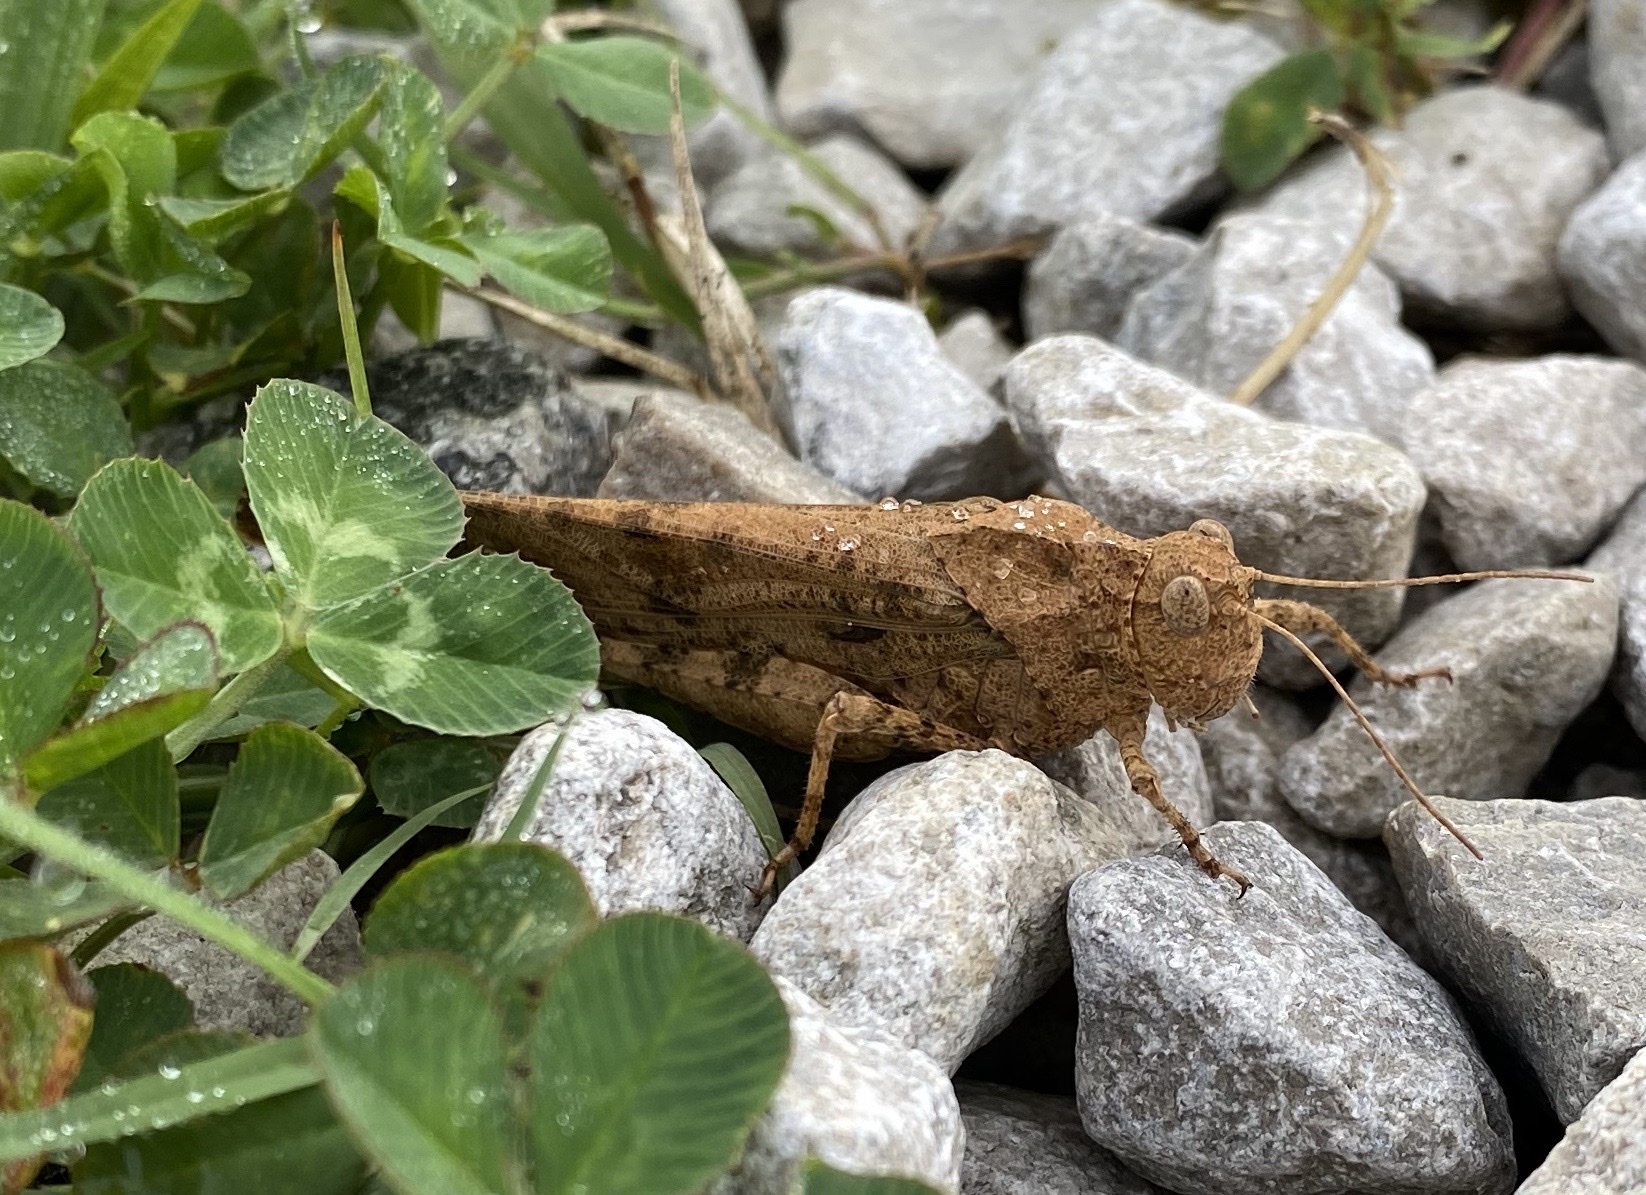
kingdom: Animalia
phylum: Arthropoda
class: Insecta
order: Orthoptera
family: Acrididae
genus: Dissosteira
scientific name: Dissosteira carolina
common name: Carolina grasshopper
